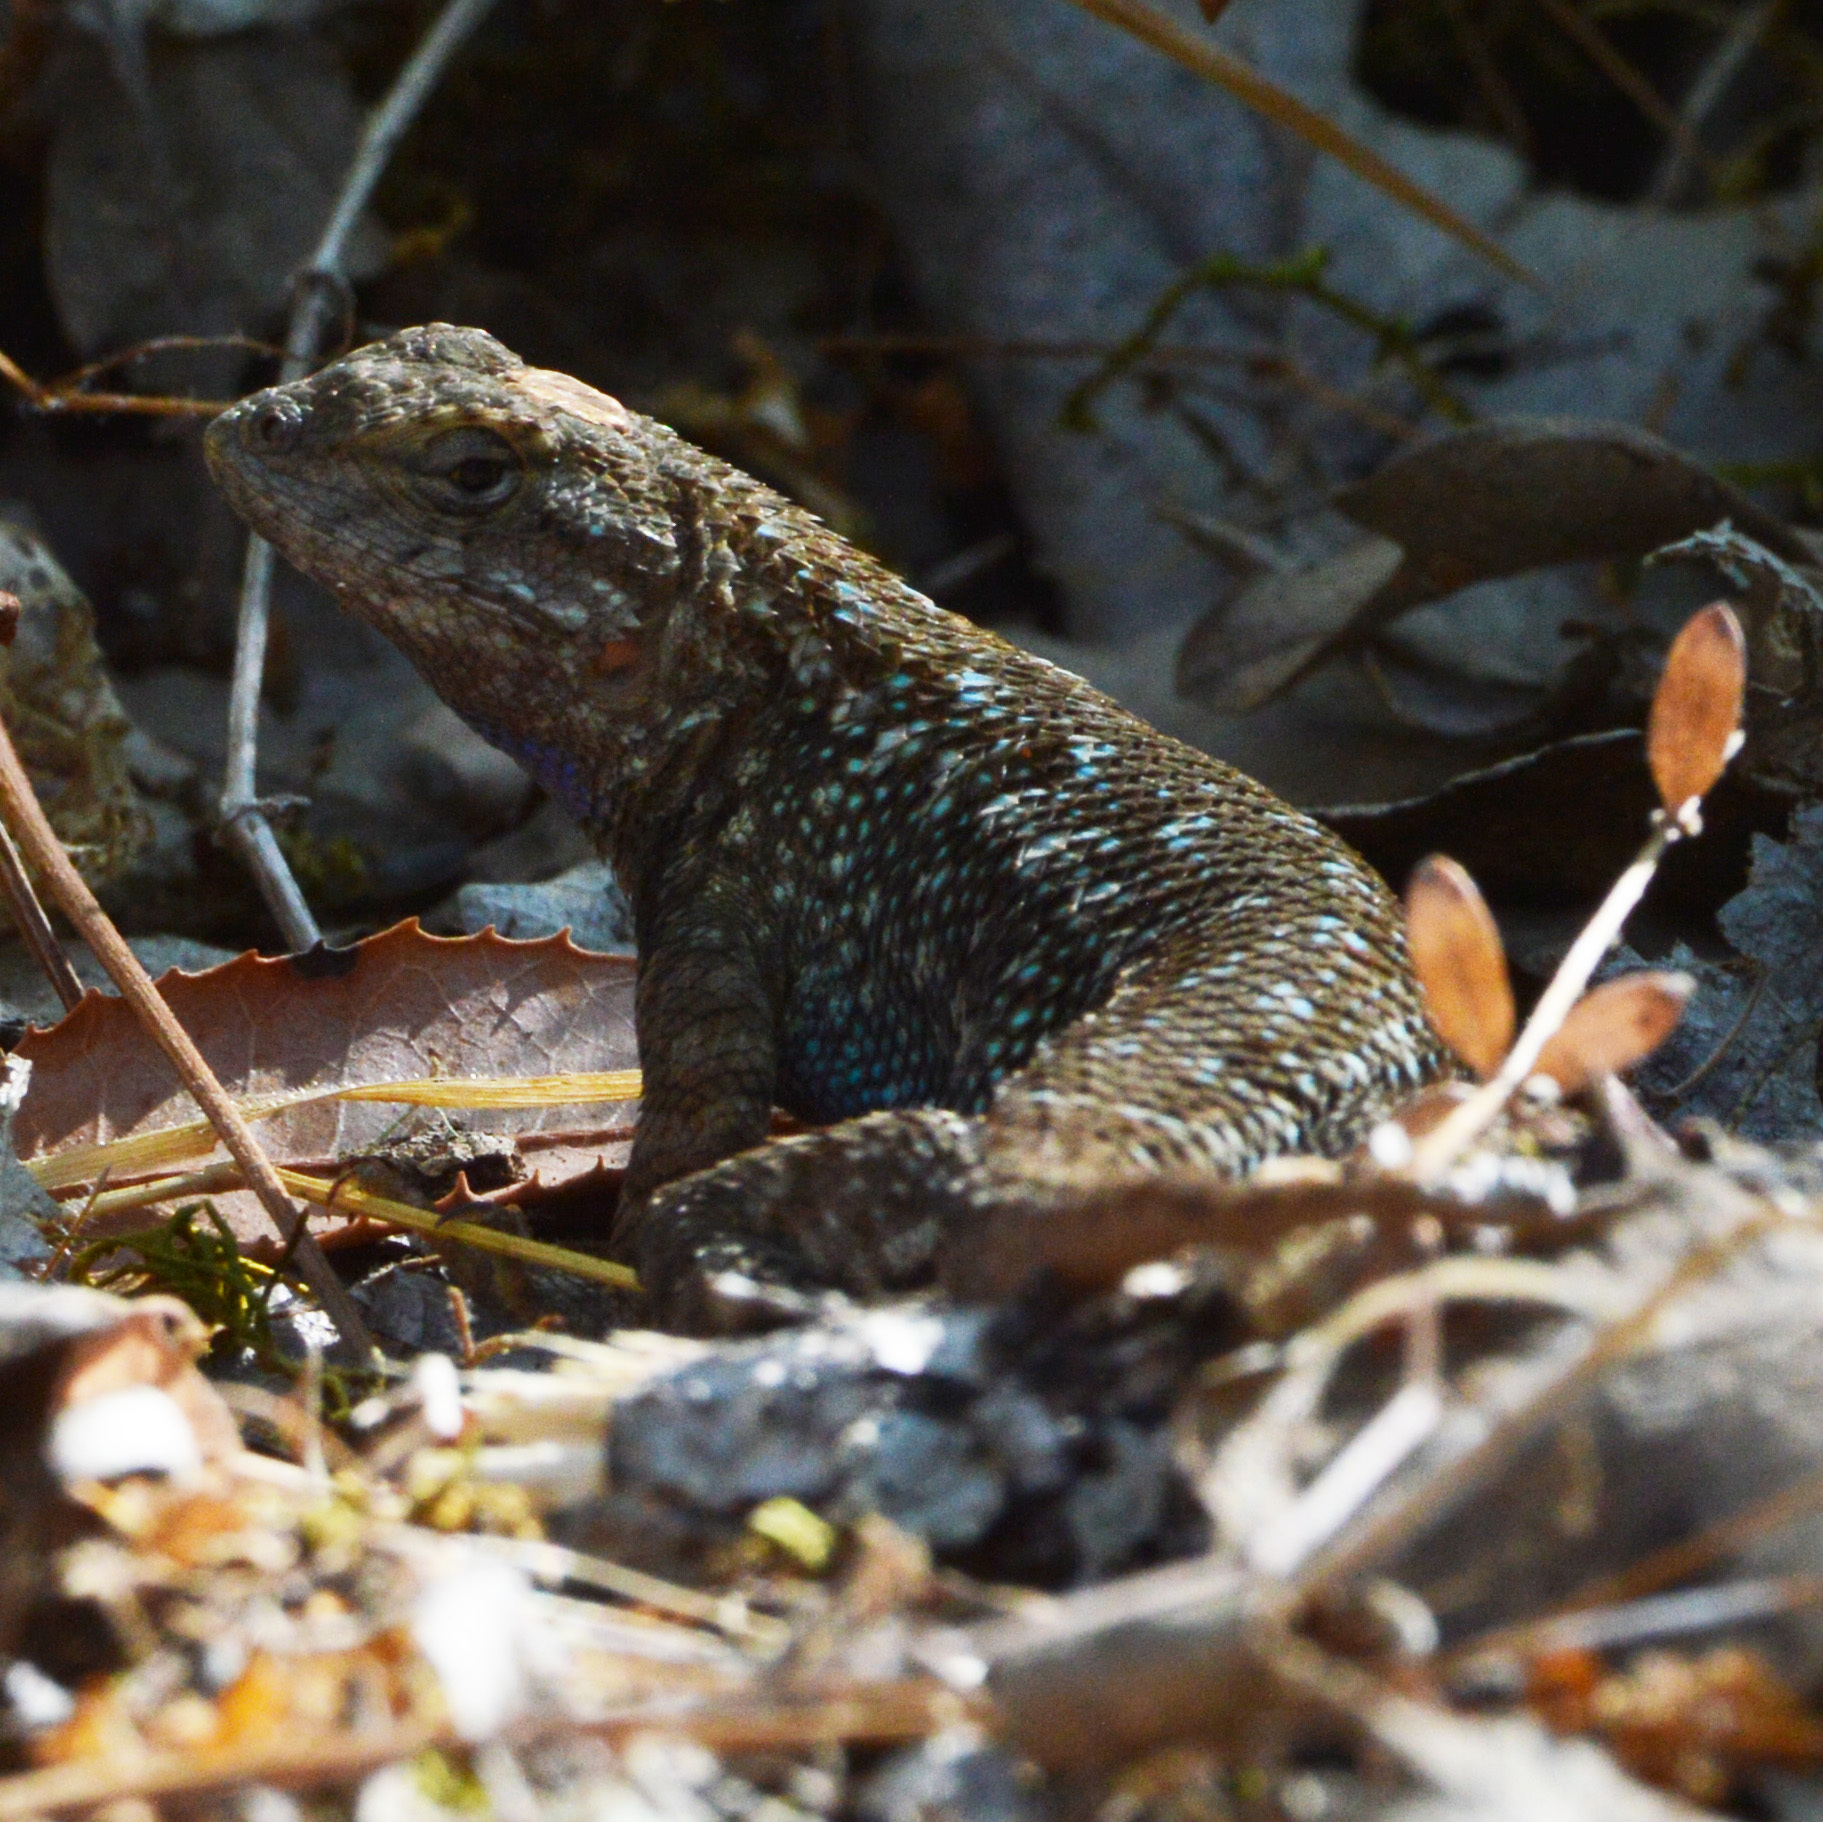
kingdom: Animalia
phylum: Chordata
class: Squamata
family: Phrynosomatidae
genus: Sceloporus
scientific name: Sceloporus occidentalis
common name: Western fence lizard
